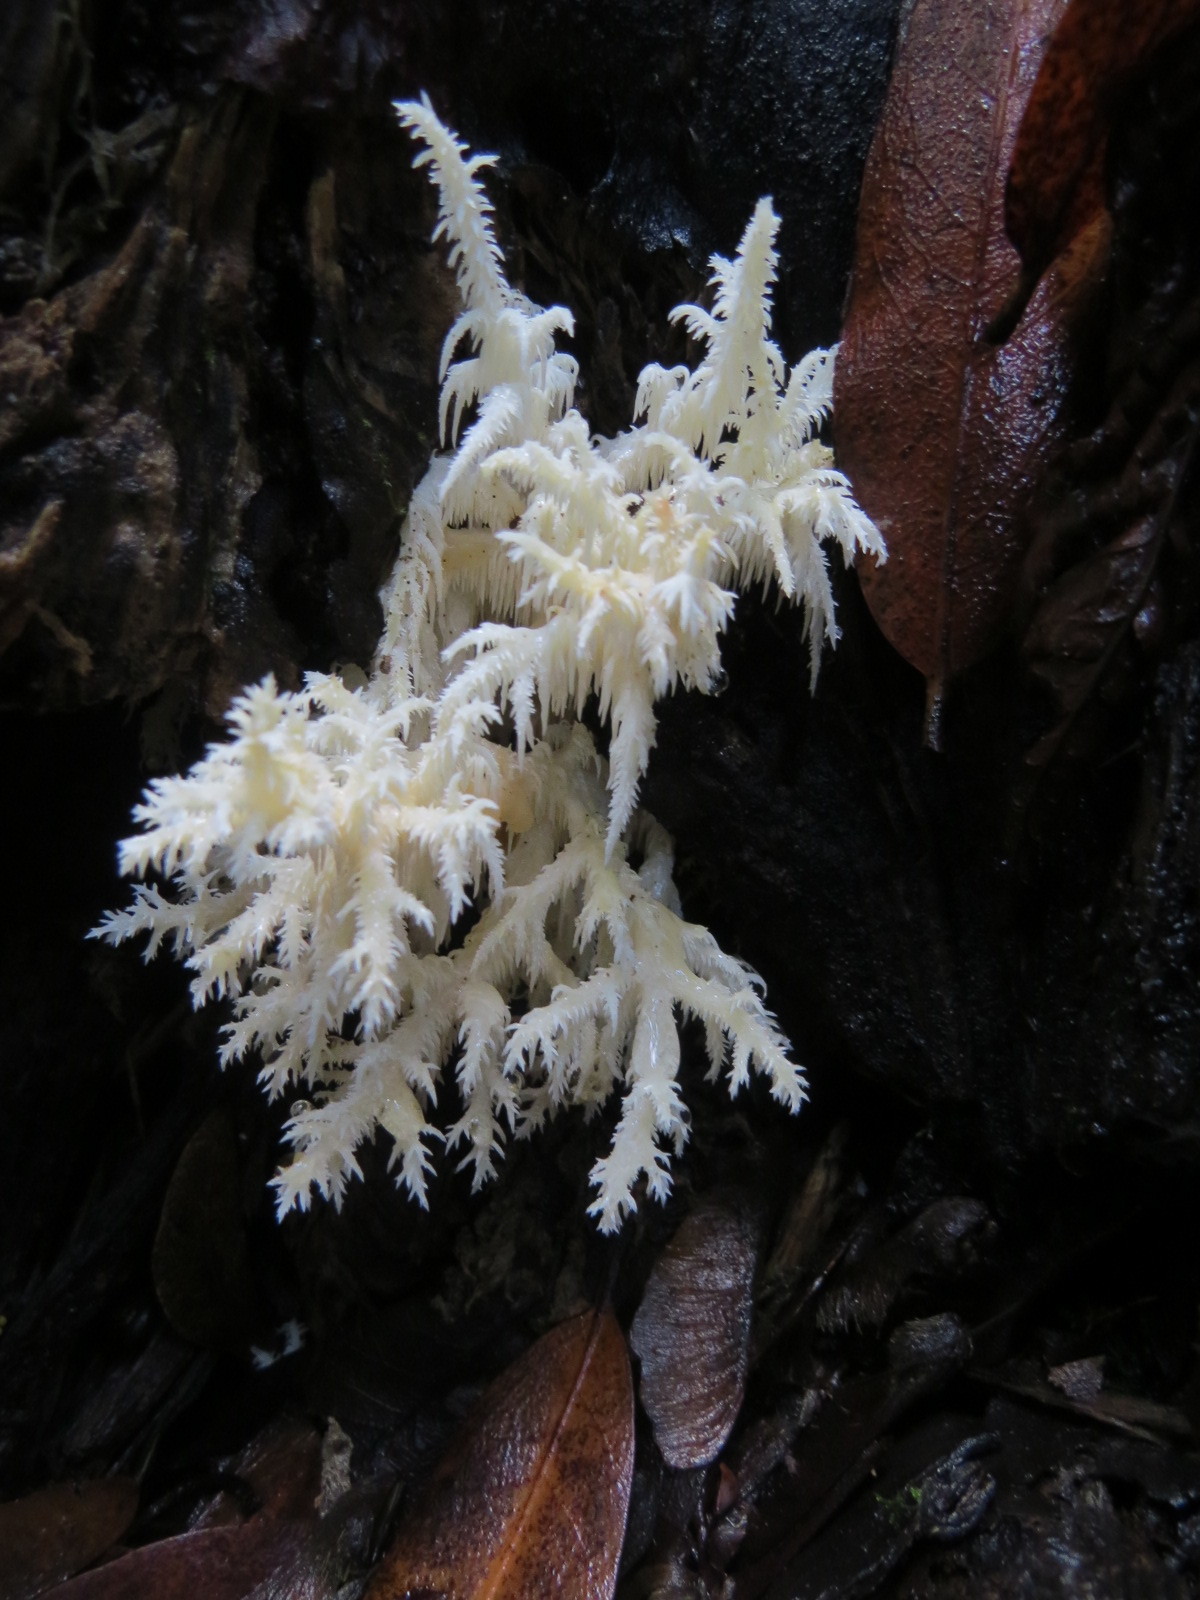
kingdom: Fungi
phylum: Basidiomycota
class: Agaricomycetes
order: Russulales
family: Hericiaceae
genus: Hericium
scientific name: Hericium coralloides
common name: Coral tooth
